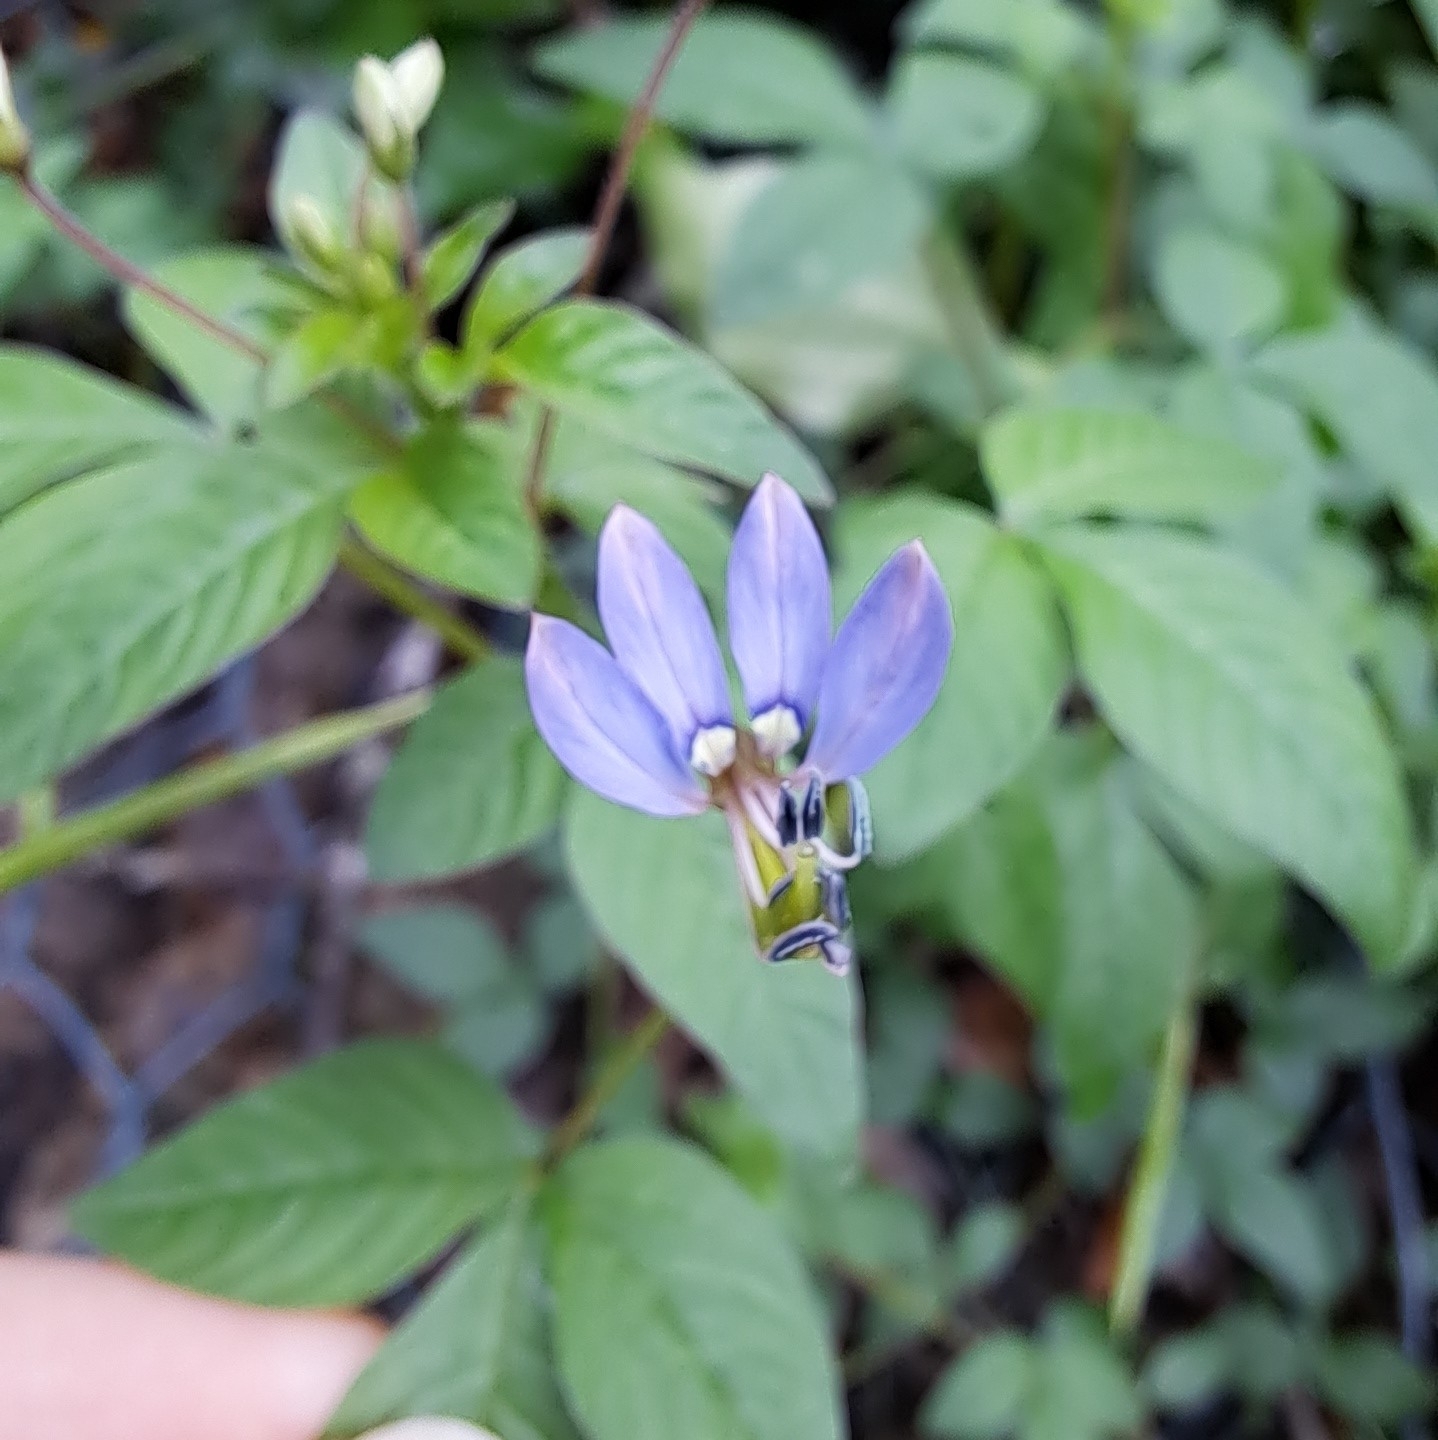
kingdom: Plantae
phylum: Tracheophyta
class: Magnoliopsida
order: Brassicales
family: Cleomaceae
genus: Sieruela
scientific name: Sieruela rutidosperma
